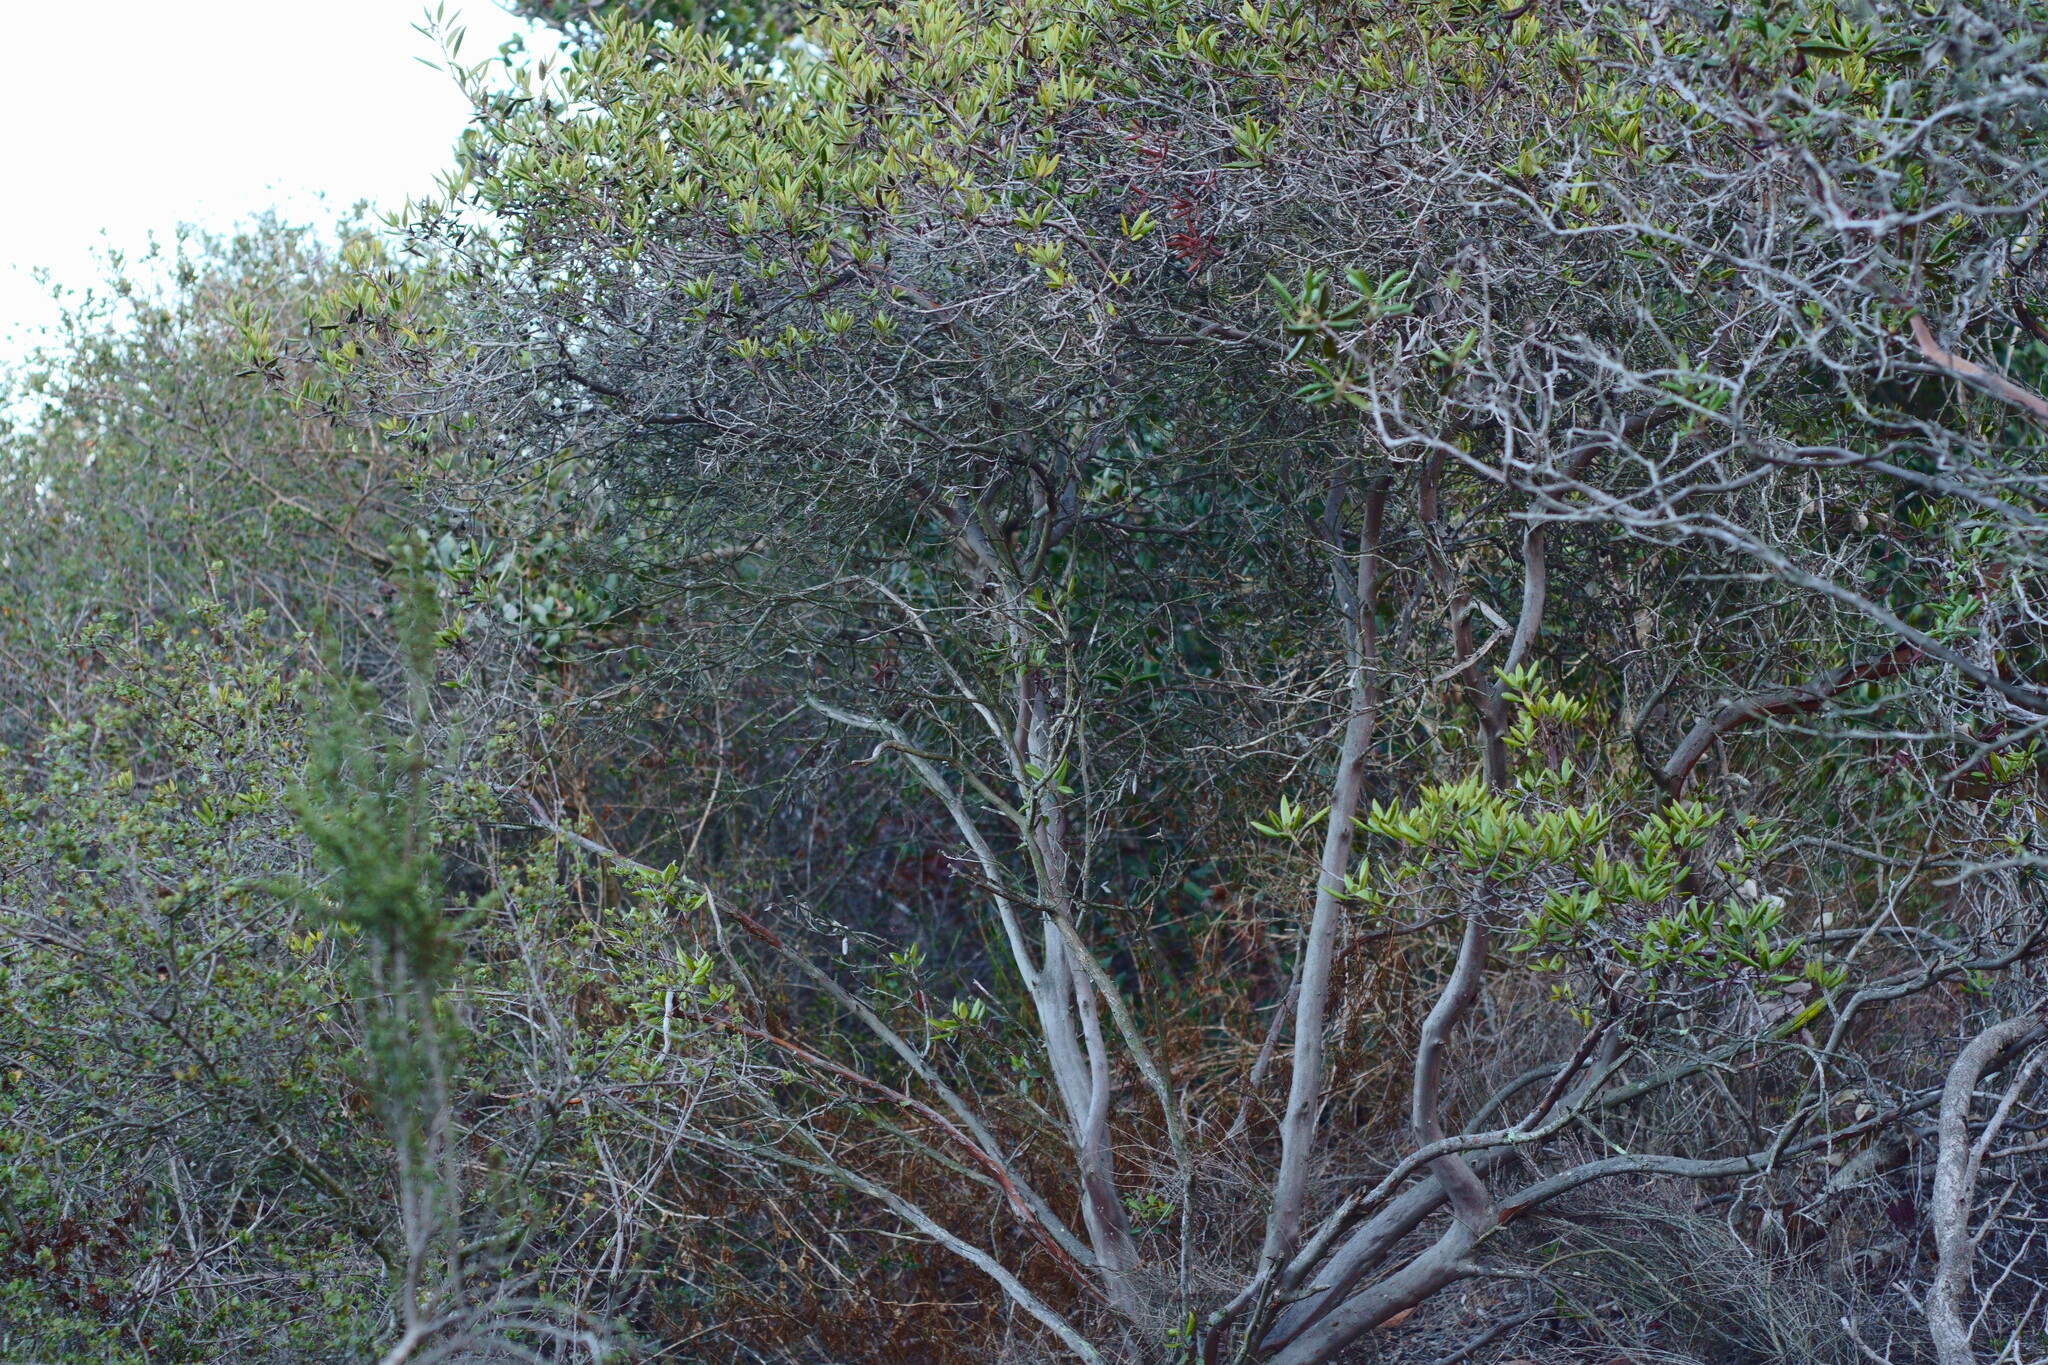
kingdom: Plantae
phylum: Tracheophyta
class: Magnoliopsida
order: Ericales
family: Ericaceae
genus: Arctostaphylos
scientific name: Arctostaphylos bicolor
